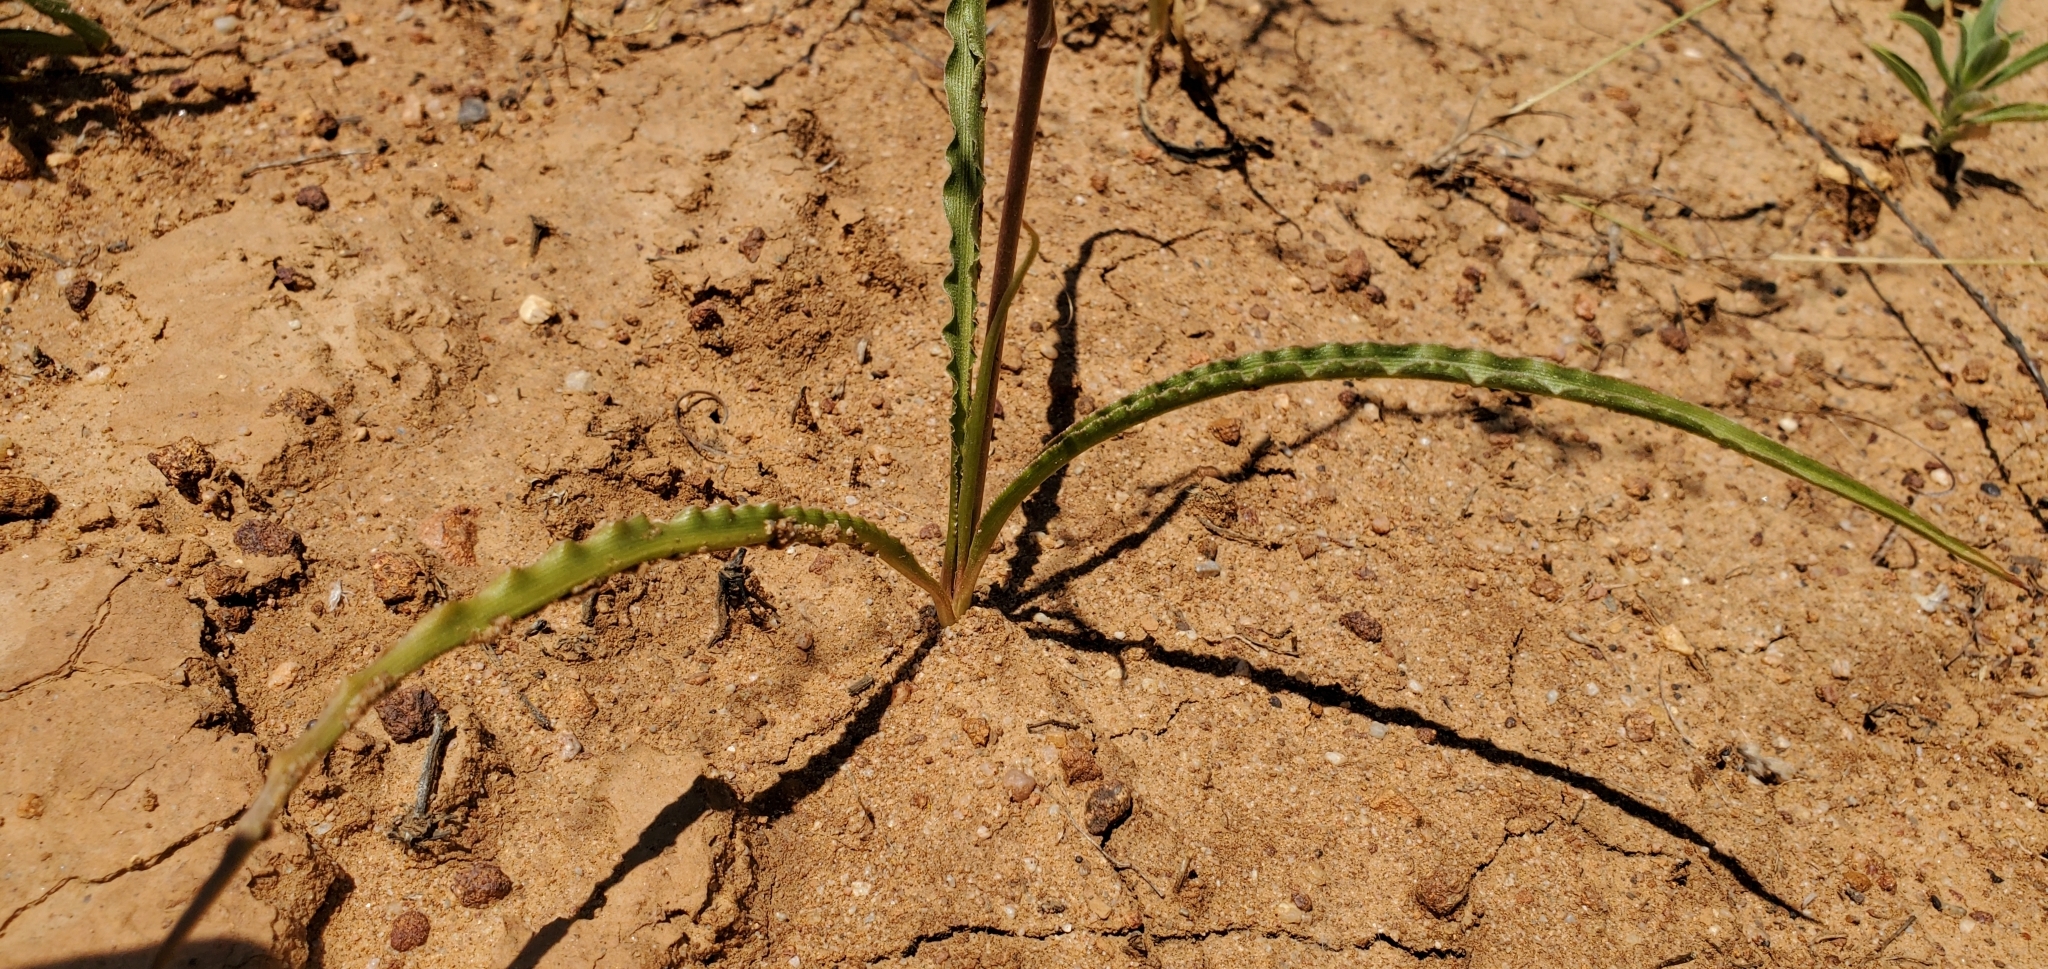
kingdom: Plantae
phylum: Tracheophyta
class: Liliopsida
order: Asparagales
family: Asparagaceae
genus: Hooveria
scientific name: Hooveria parviflora
